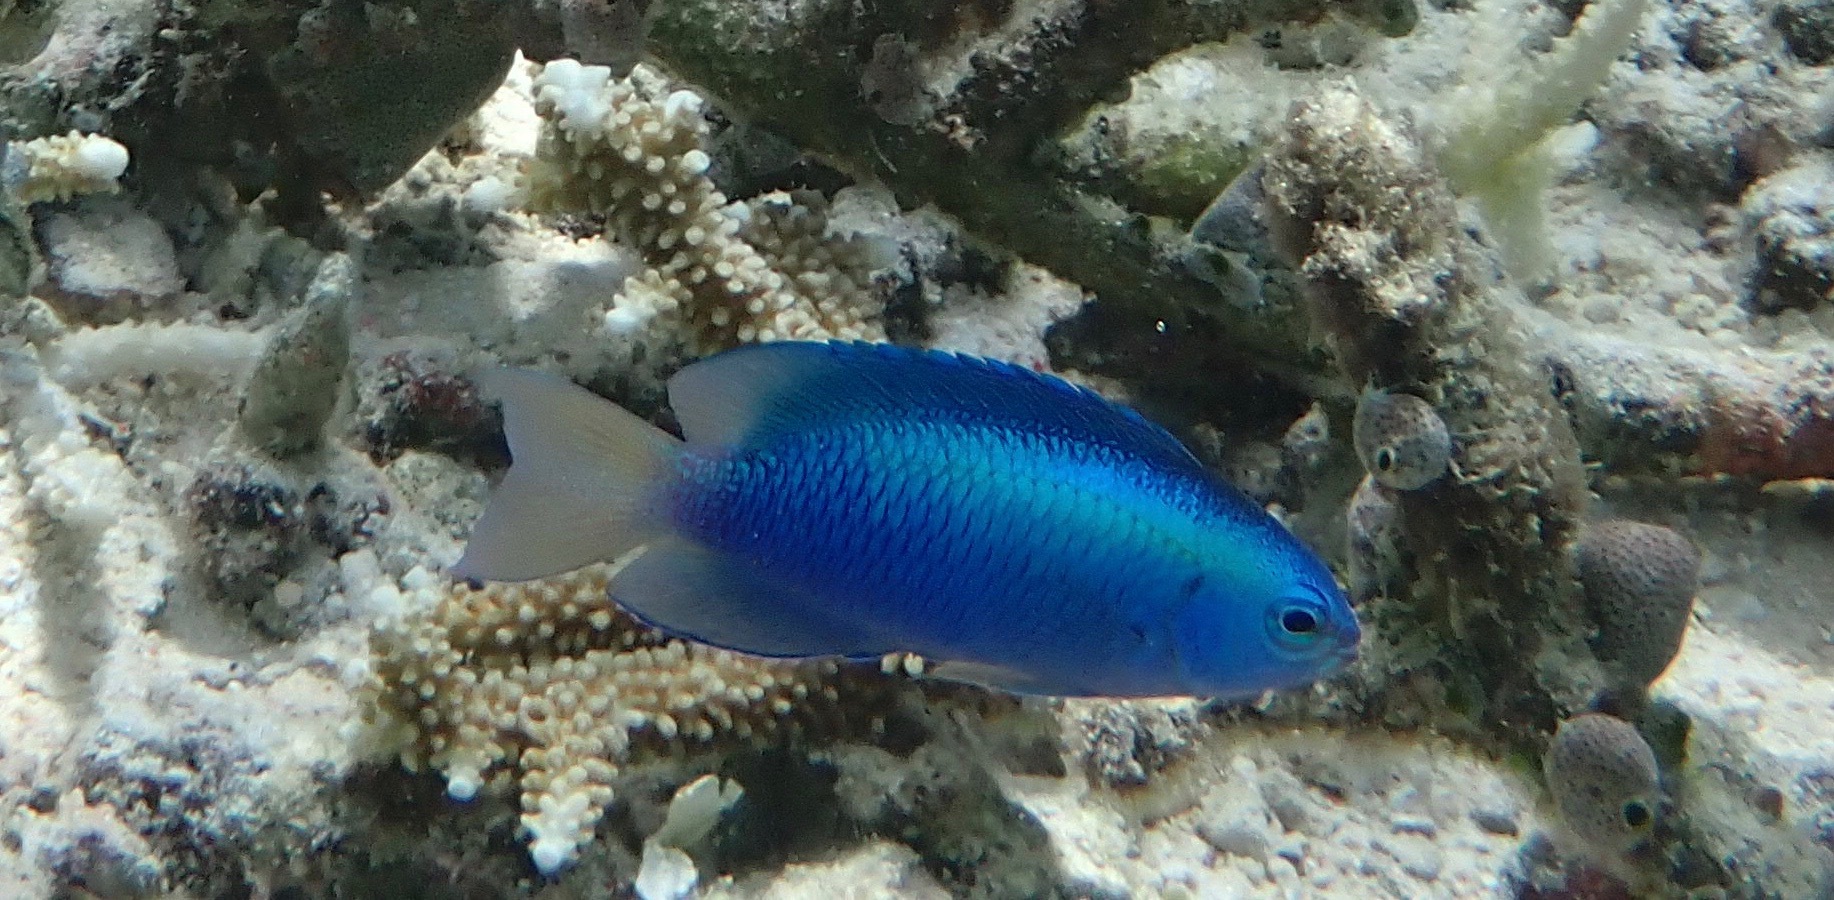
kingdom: Animalia
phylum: Chordata
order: Perciformes
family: Pomacentridae
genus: Pomacentrus
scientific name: Pomacentrus coelestis
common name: Neon damsel
